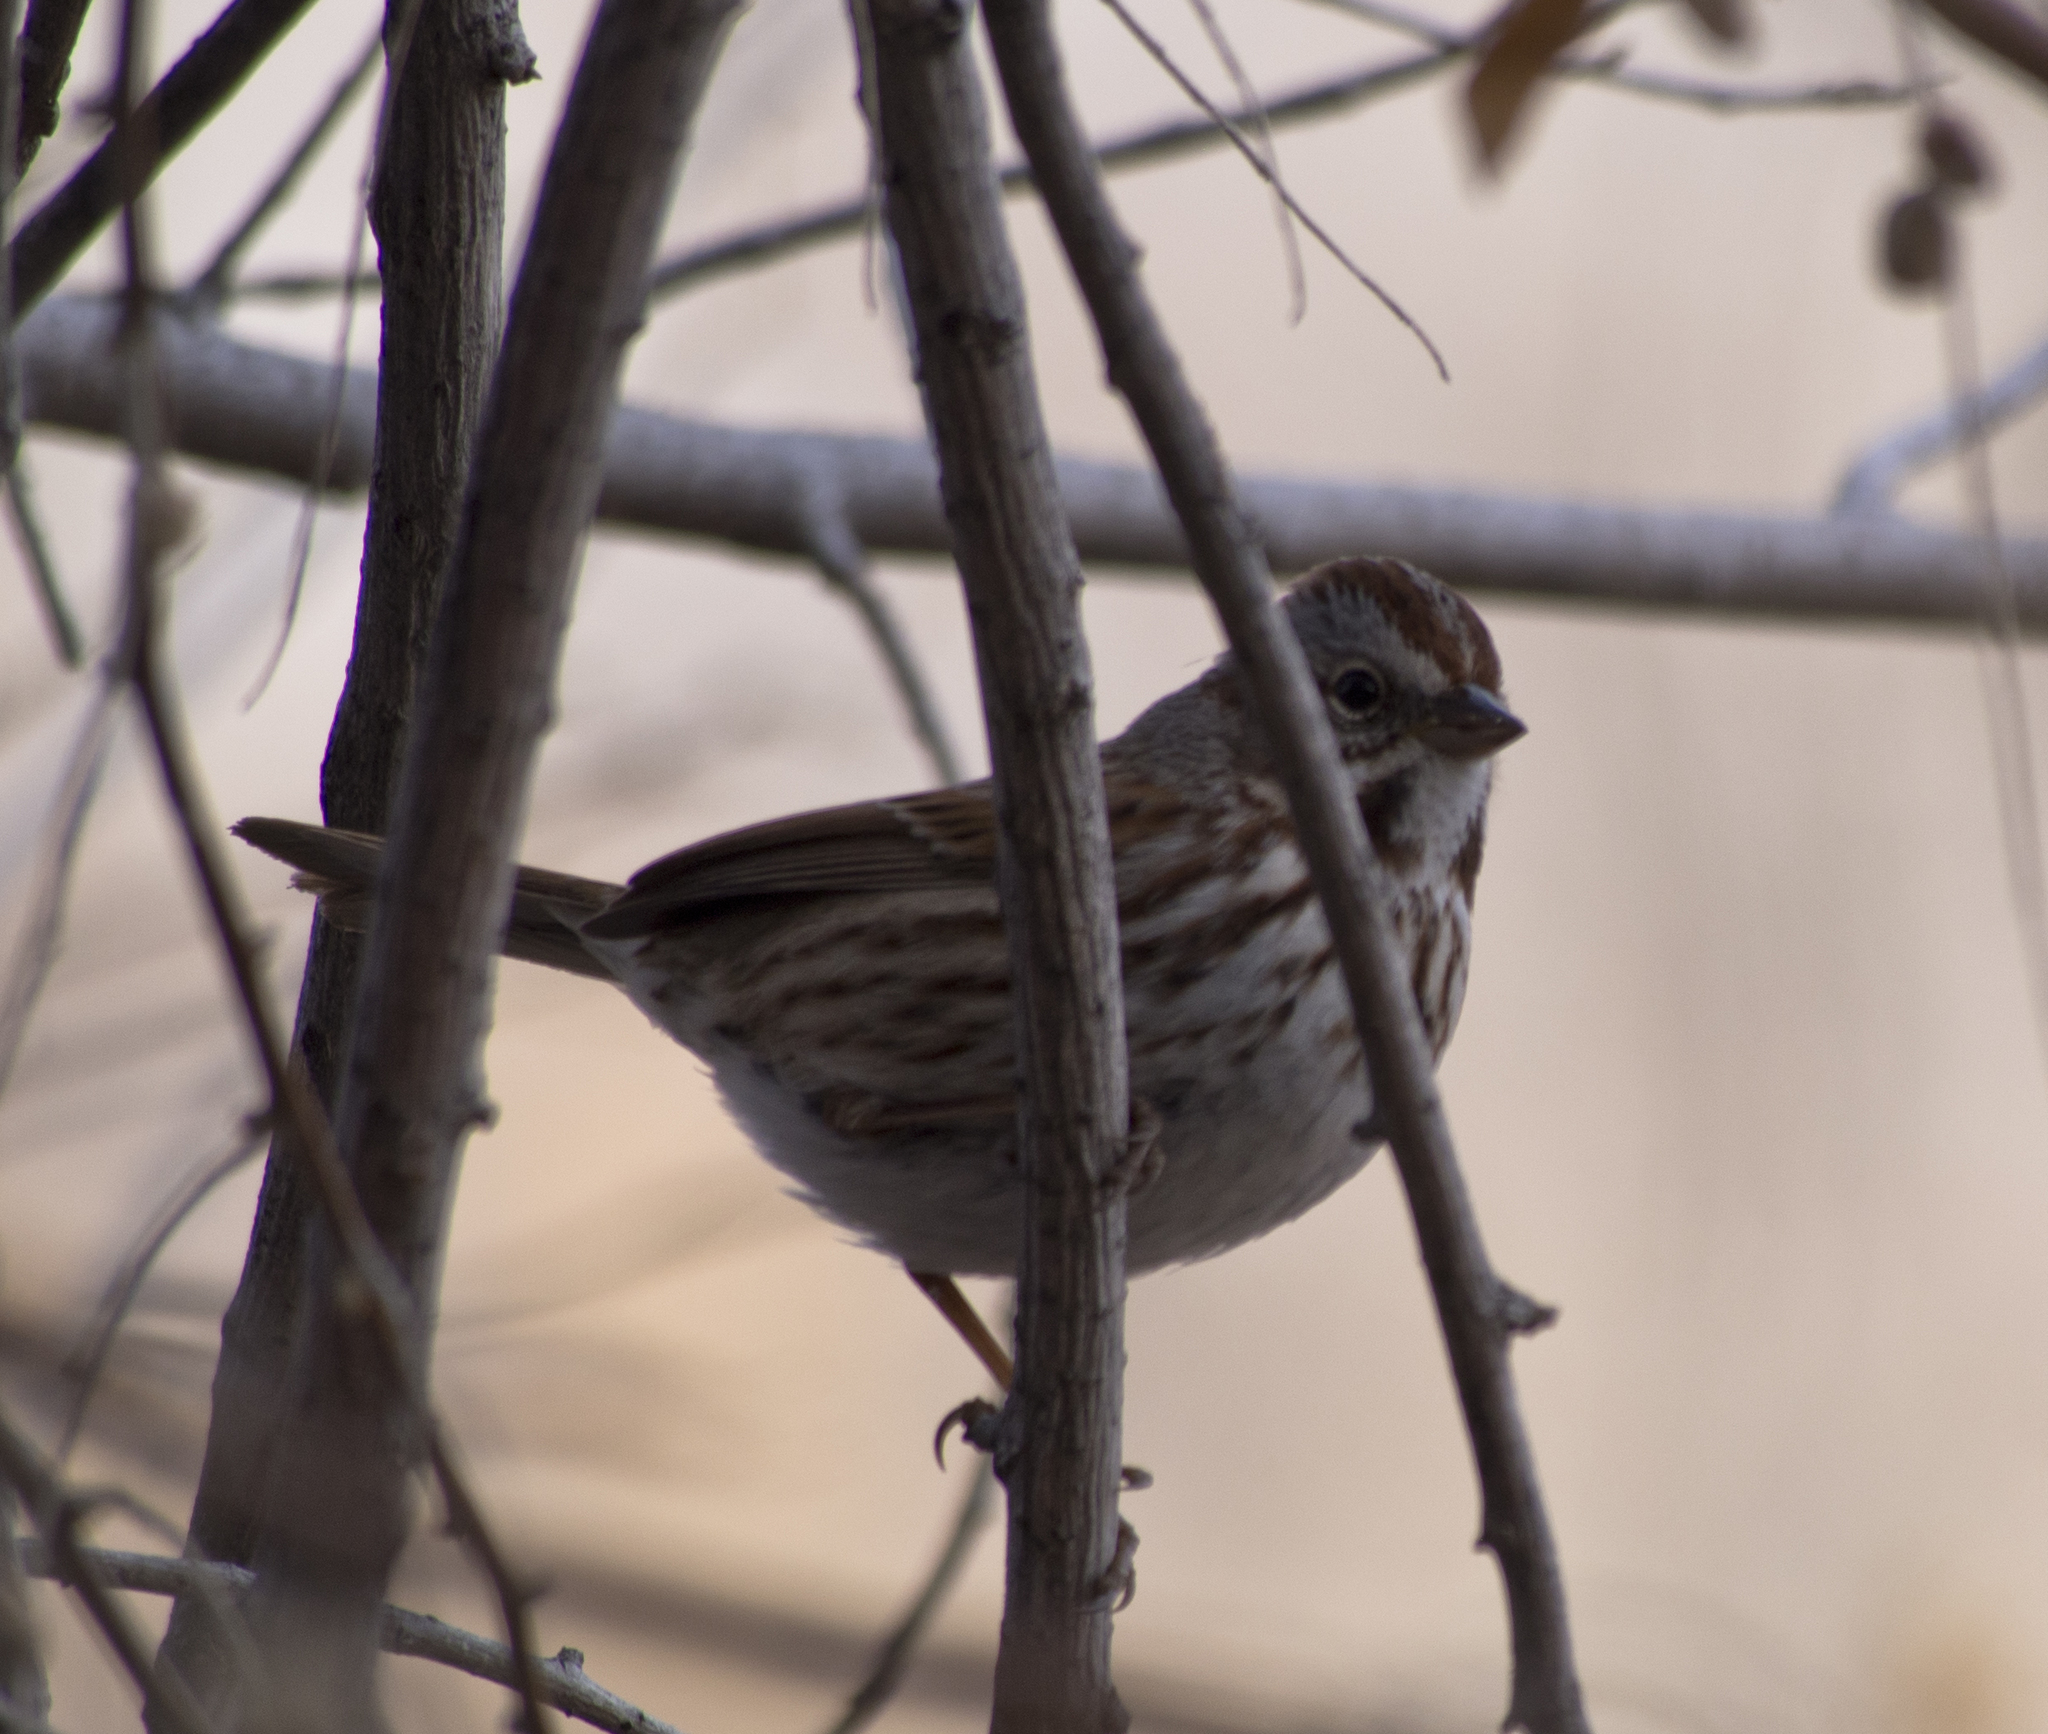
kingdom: Animalia
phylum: Chordata
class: Aves
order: Passeriformes
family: Passerellidae
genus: Melospiza
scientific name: Melospiza melodia
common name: Song sparrow
